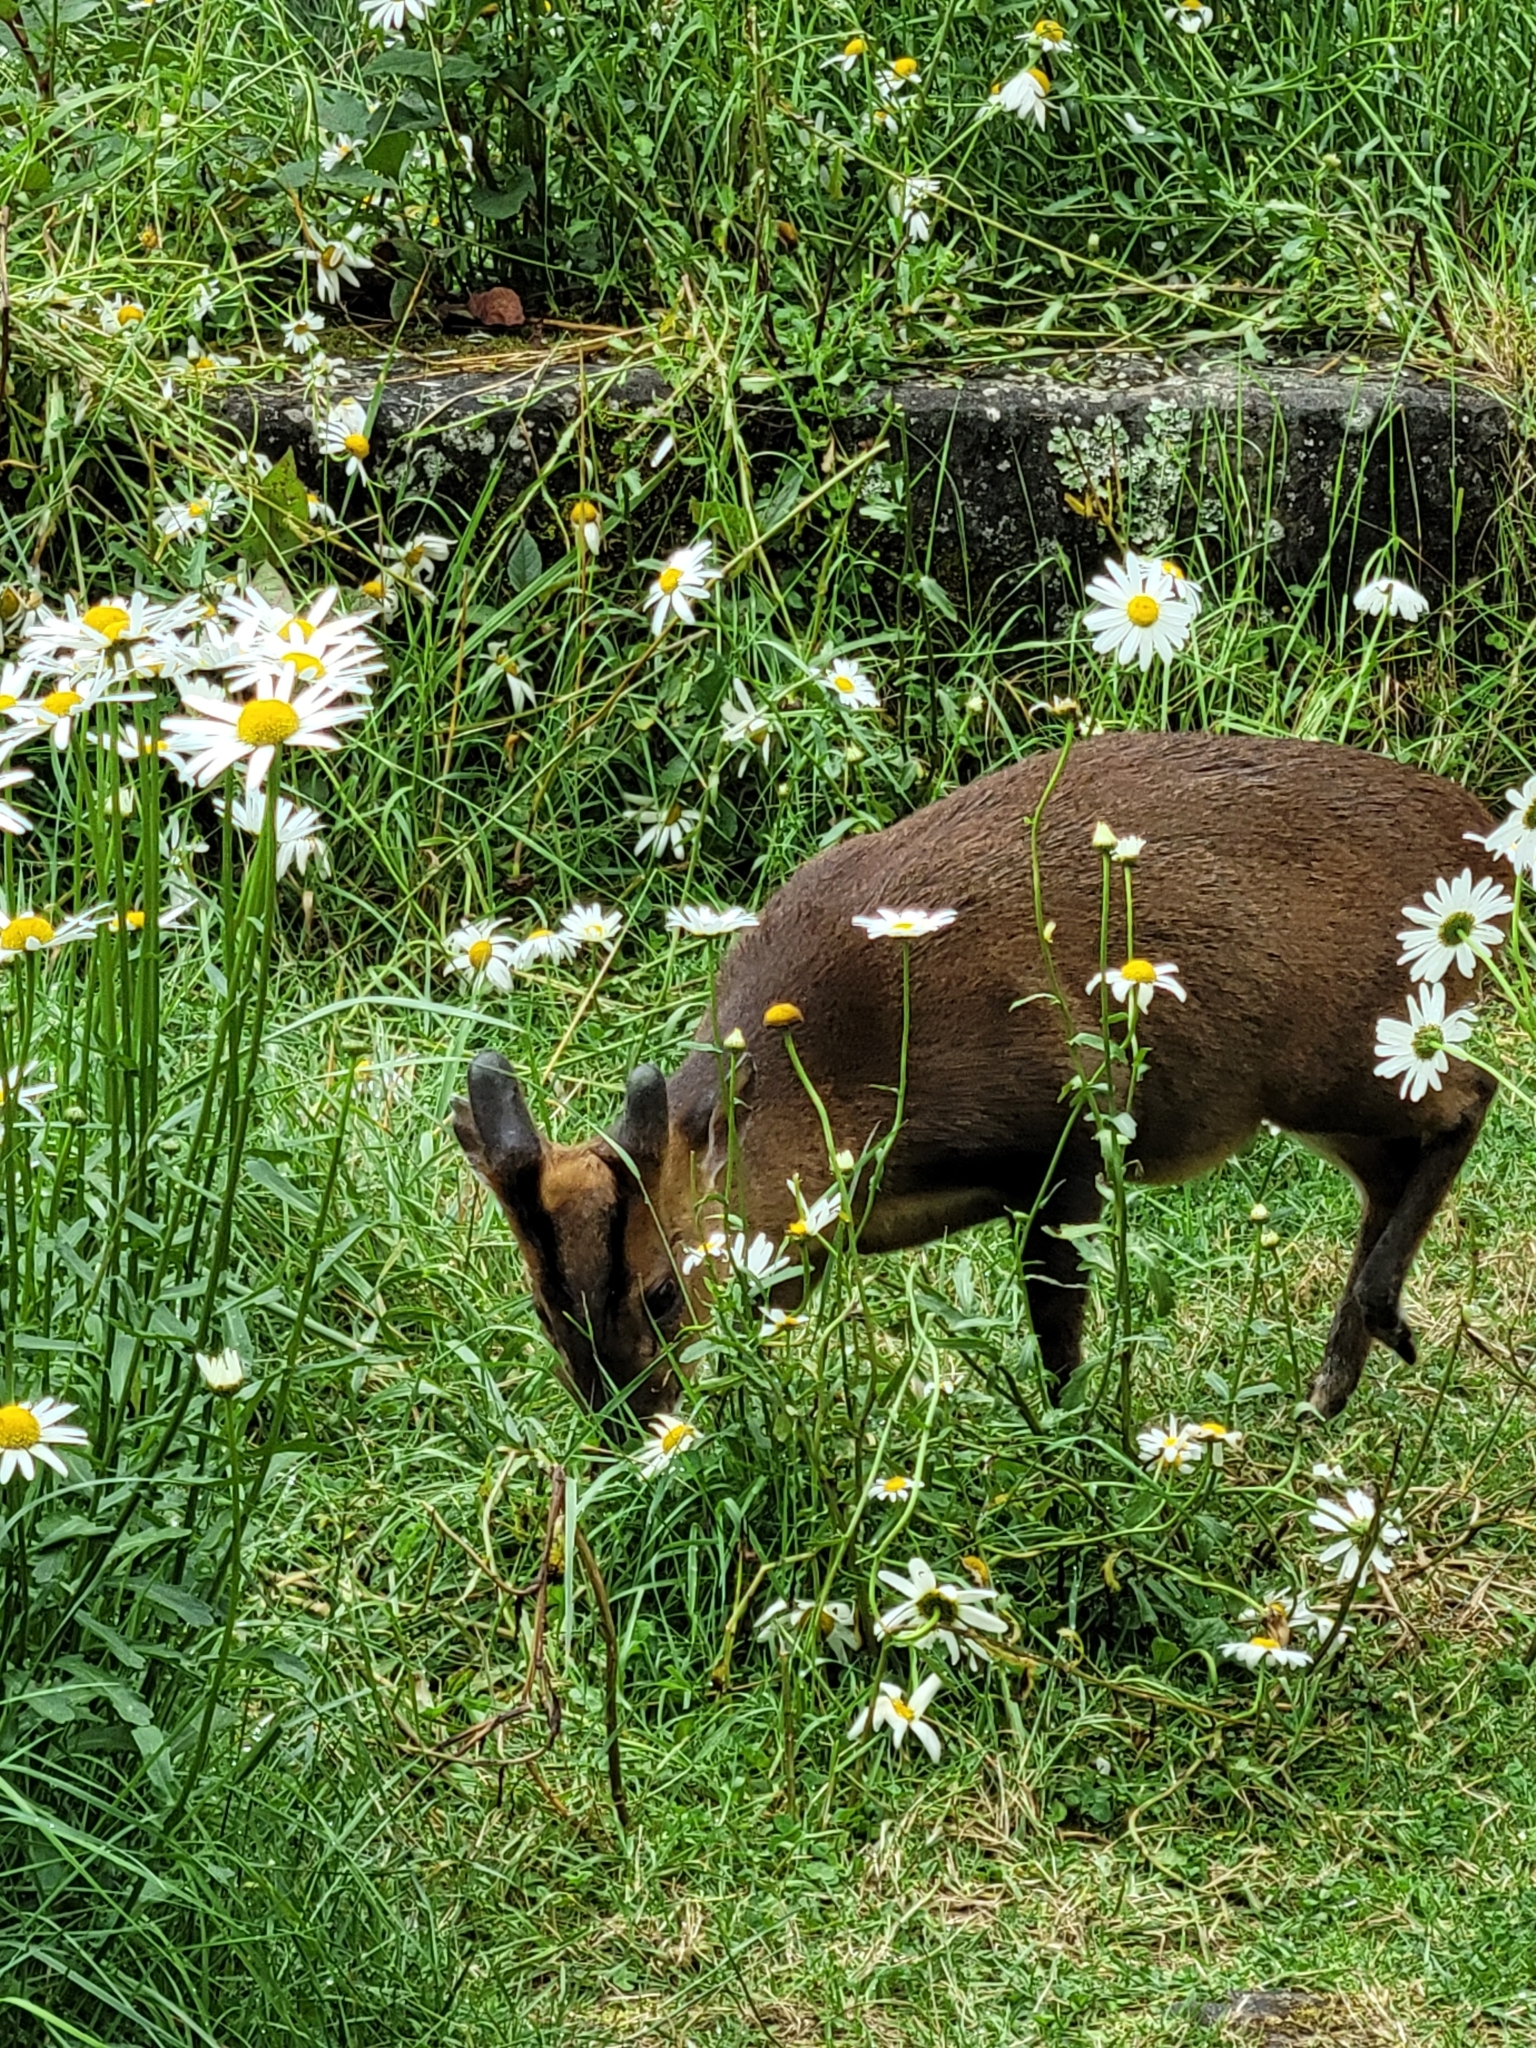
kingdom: Animalia
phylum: Chordata
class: Mammalia
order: Artiodactyla
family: Cervidae
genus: Muntiacus
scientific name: Muntiacus reevesi
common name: Reeves' muntjac
